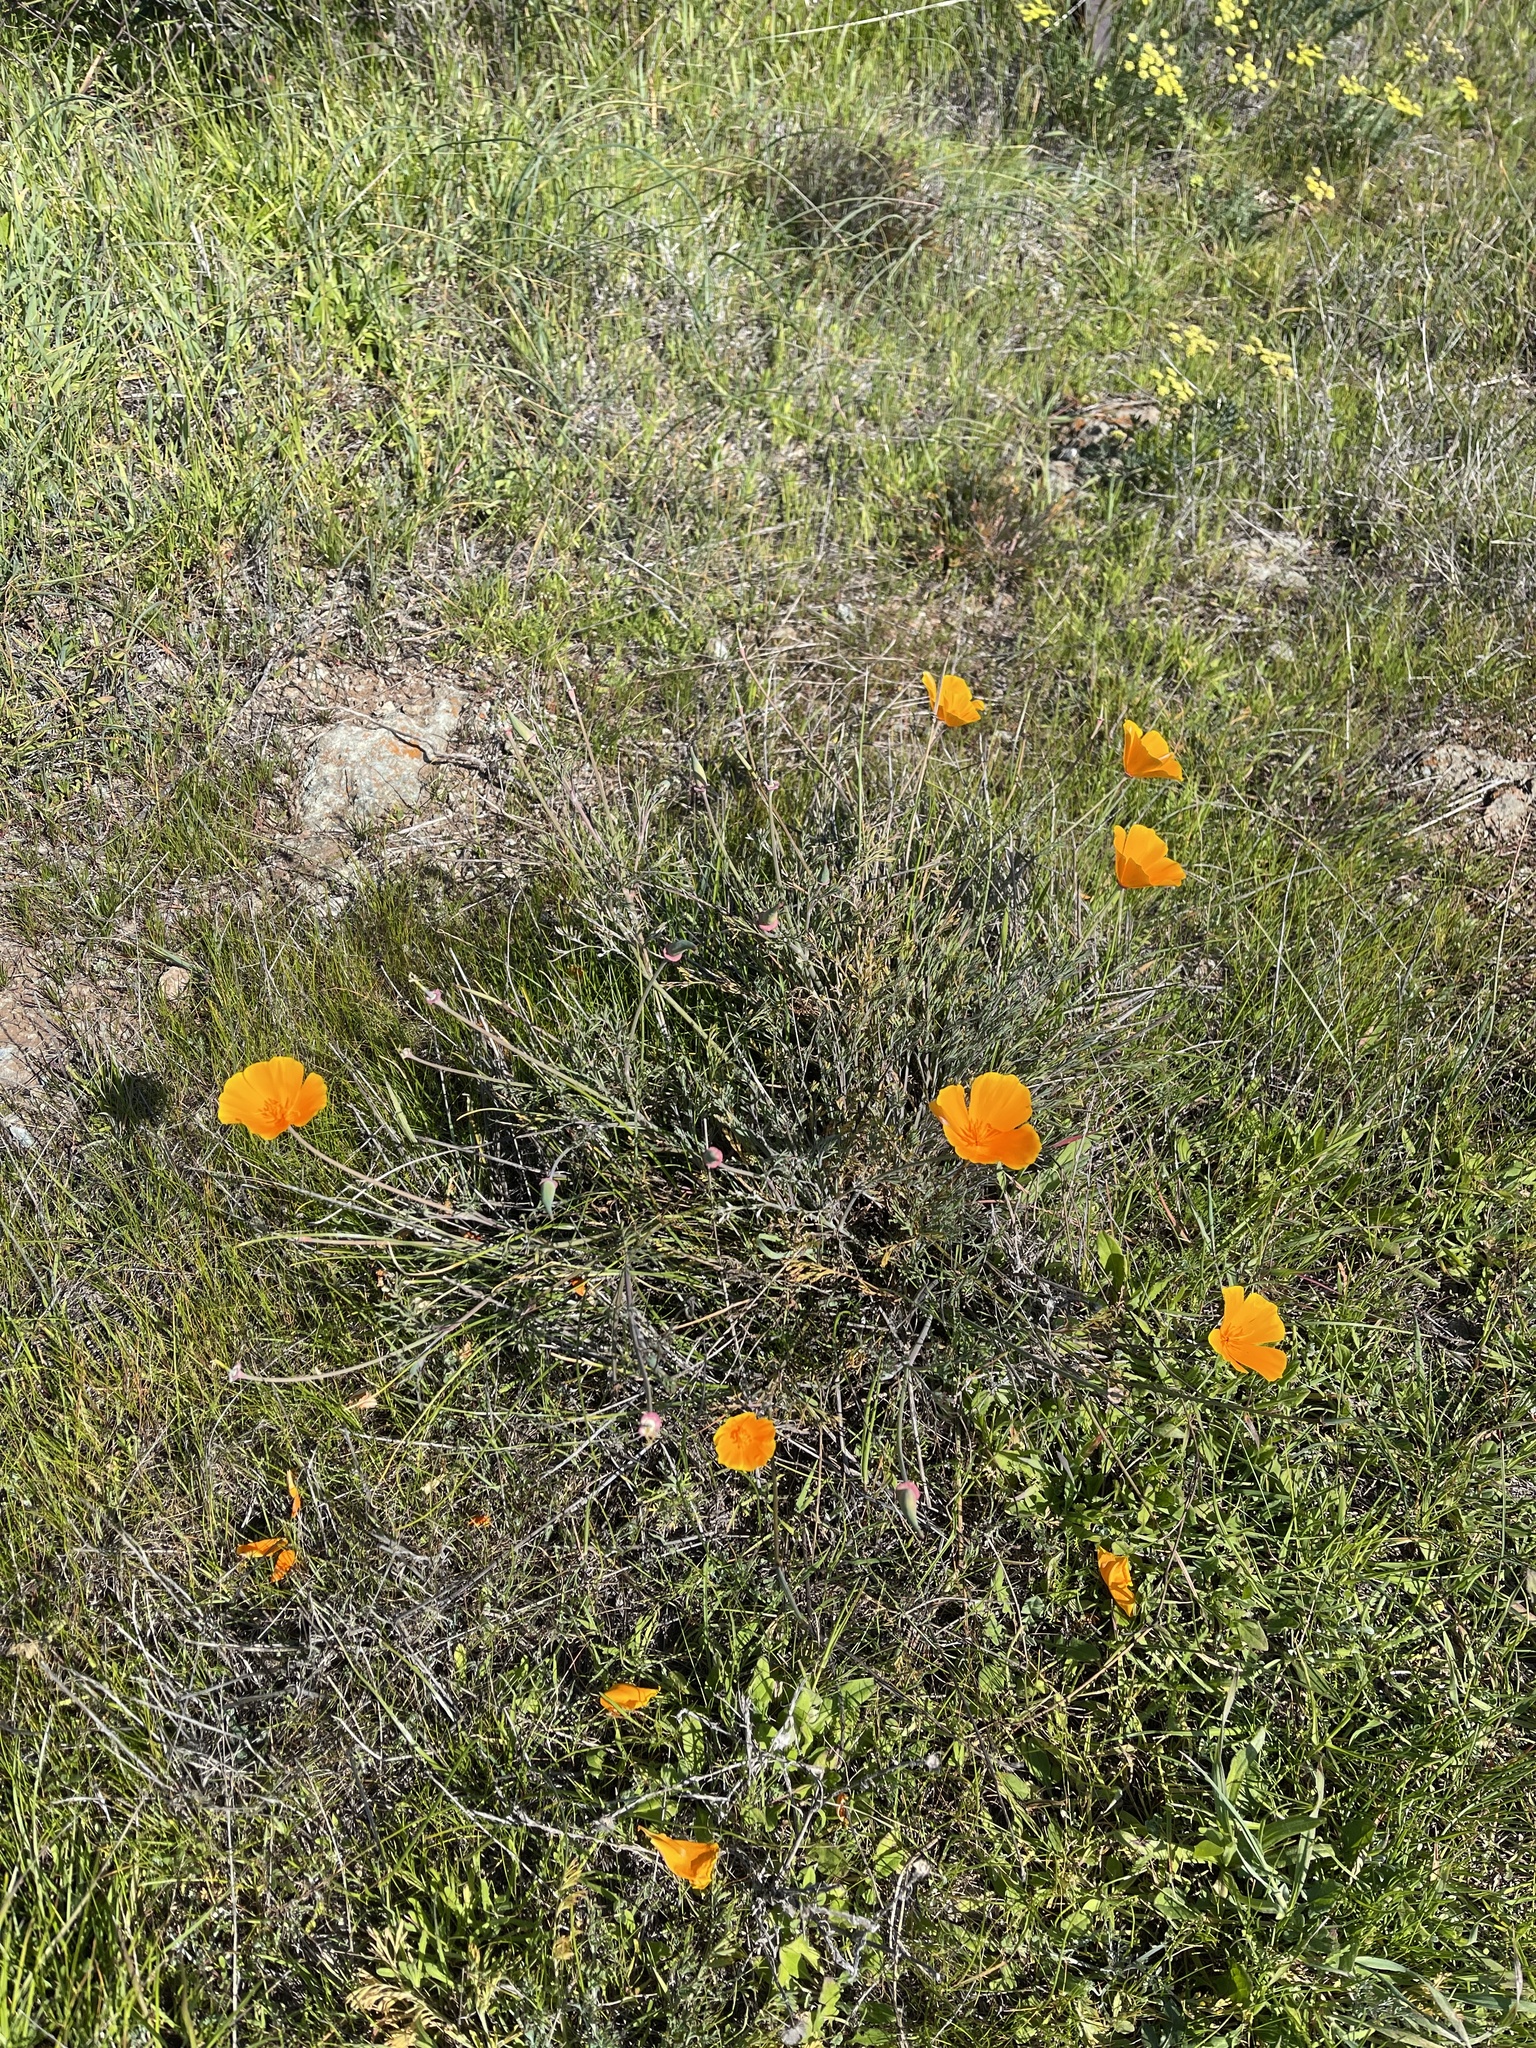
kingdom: Plantae
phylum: Tracheophyta
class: Magnoliopsida
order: Ranunculales
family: Papaveraceae
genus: Eschscholzia
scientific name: Eschscholzia californica
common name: California poppy
